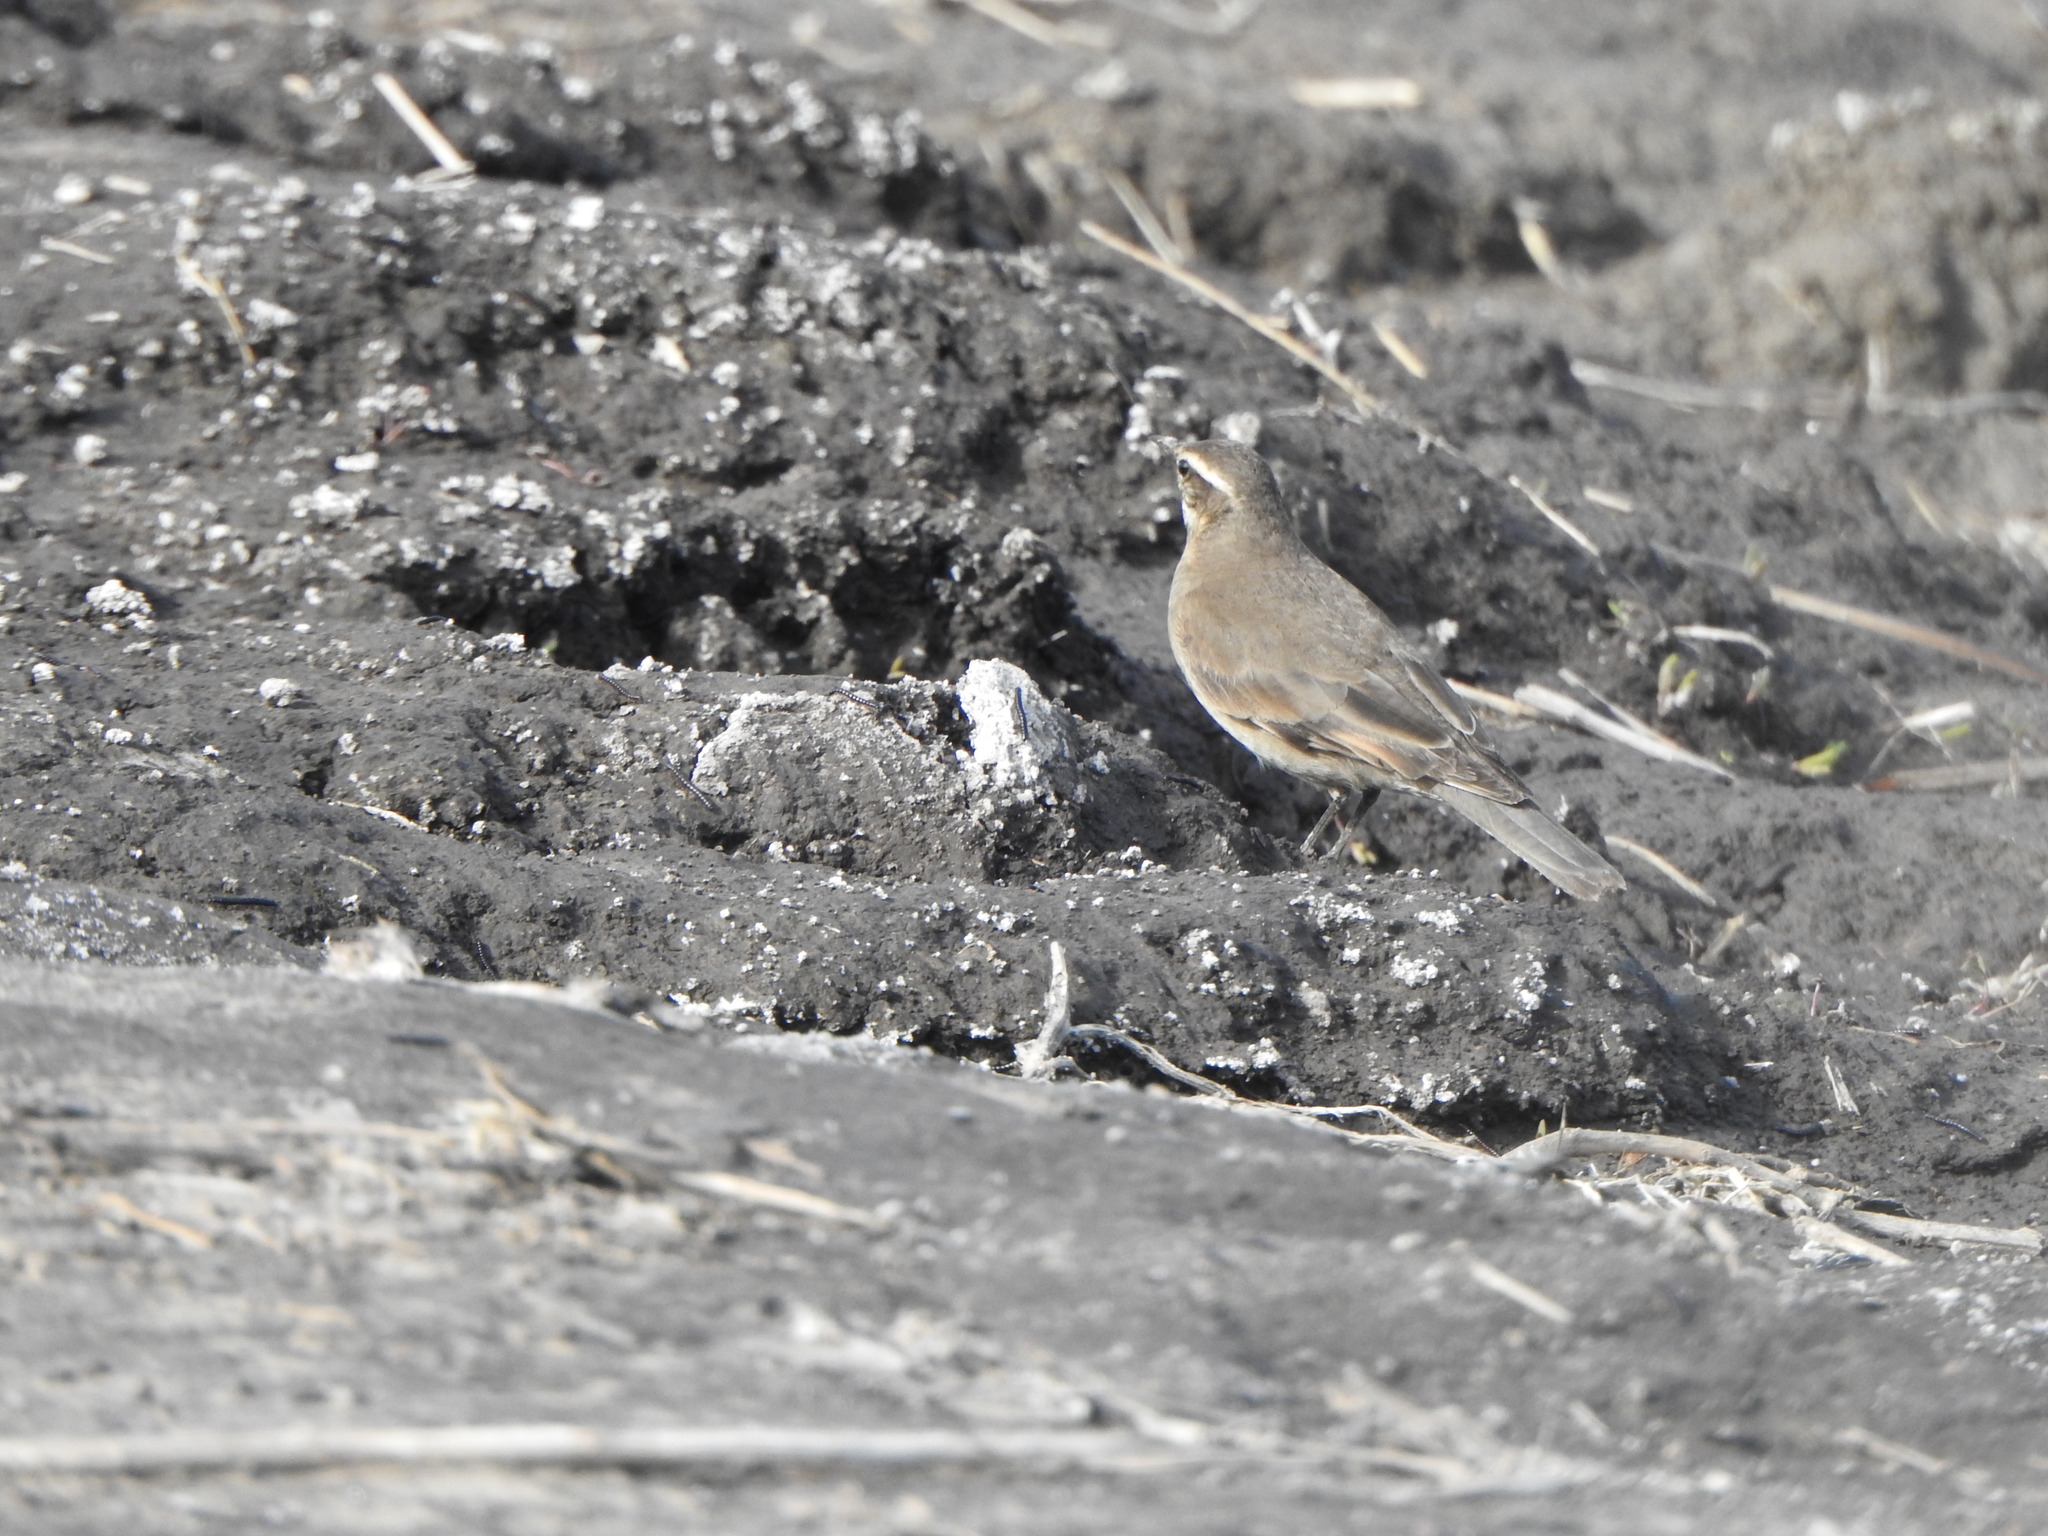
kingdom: Animalia
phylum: Chordata
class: Aves
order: Passeriformes
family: Furnariidae
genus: Cinclodes
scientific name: Cinclodes fuscus
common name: Buff-winged cinclodes
